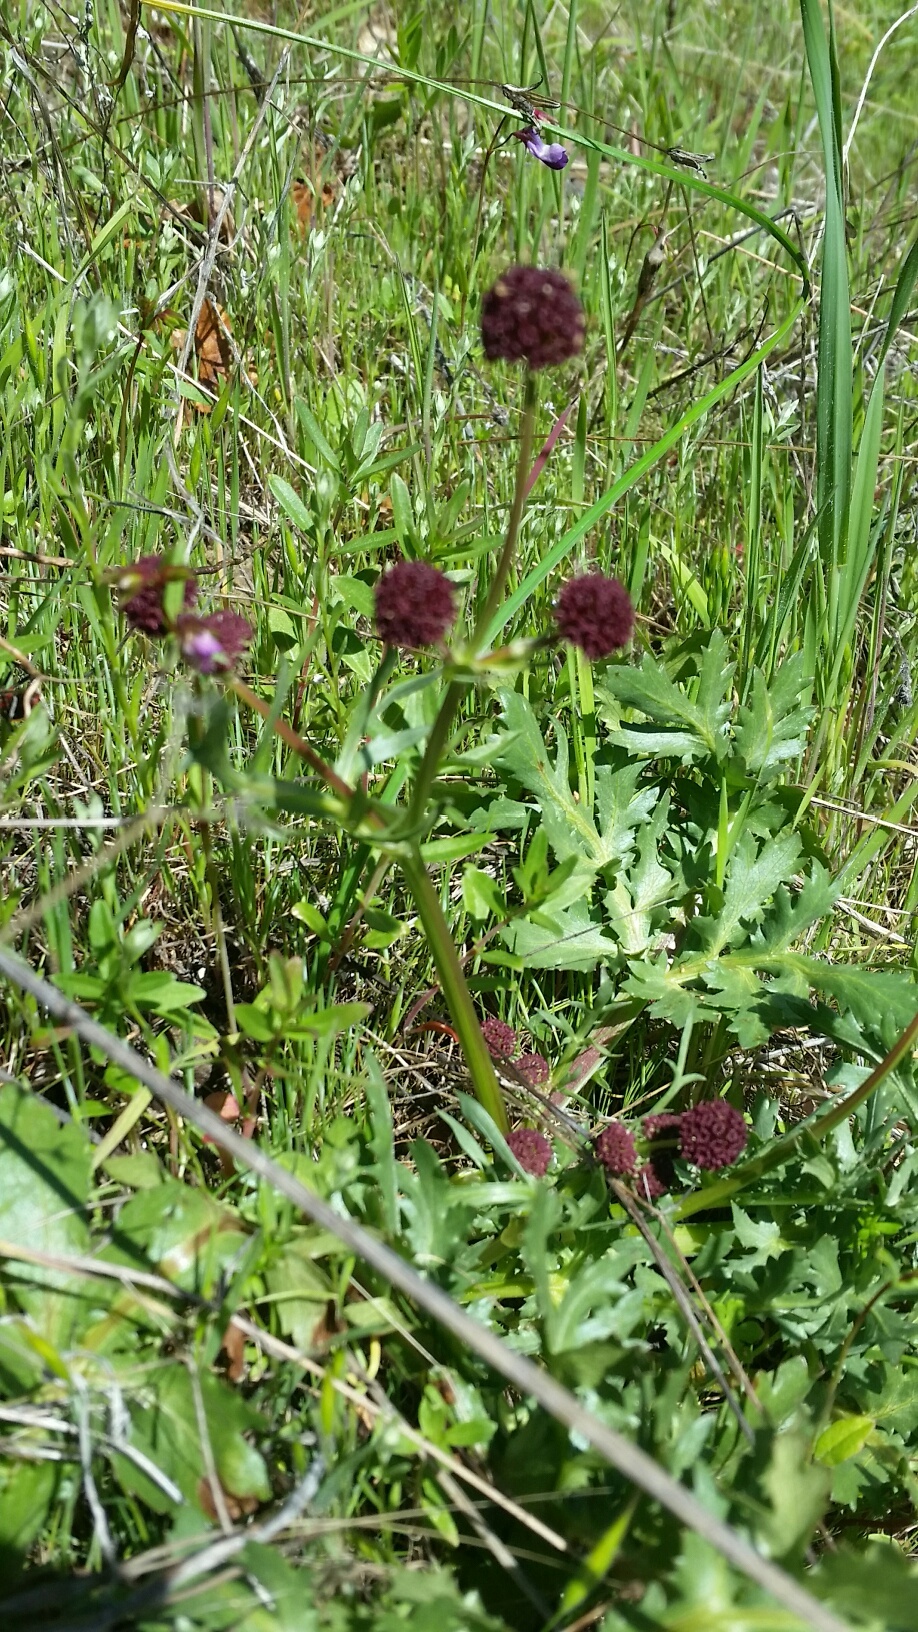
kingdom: Plantae
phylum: Tracheophyta
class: Magnoliopsida
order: Apiales
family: Apiaceae
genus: Sanicula
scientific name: Sanicula bipinnatifida
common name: Shoe-buttons
